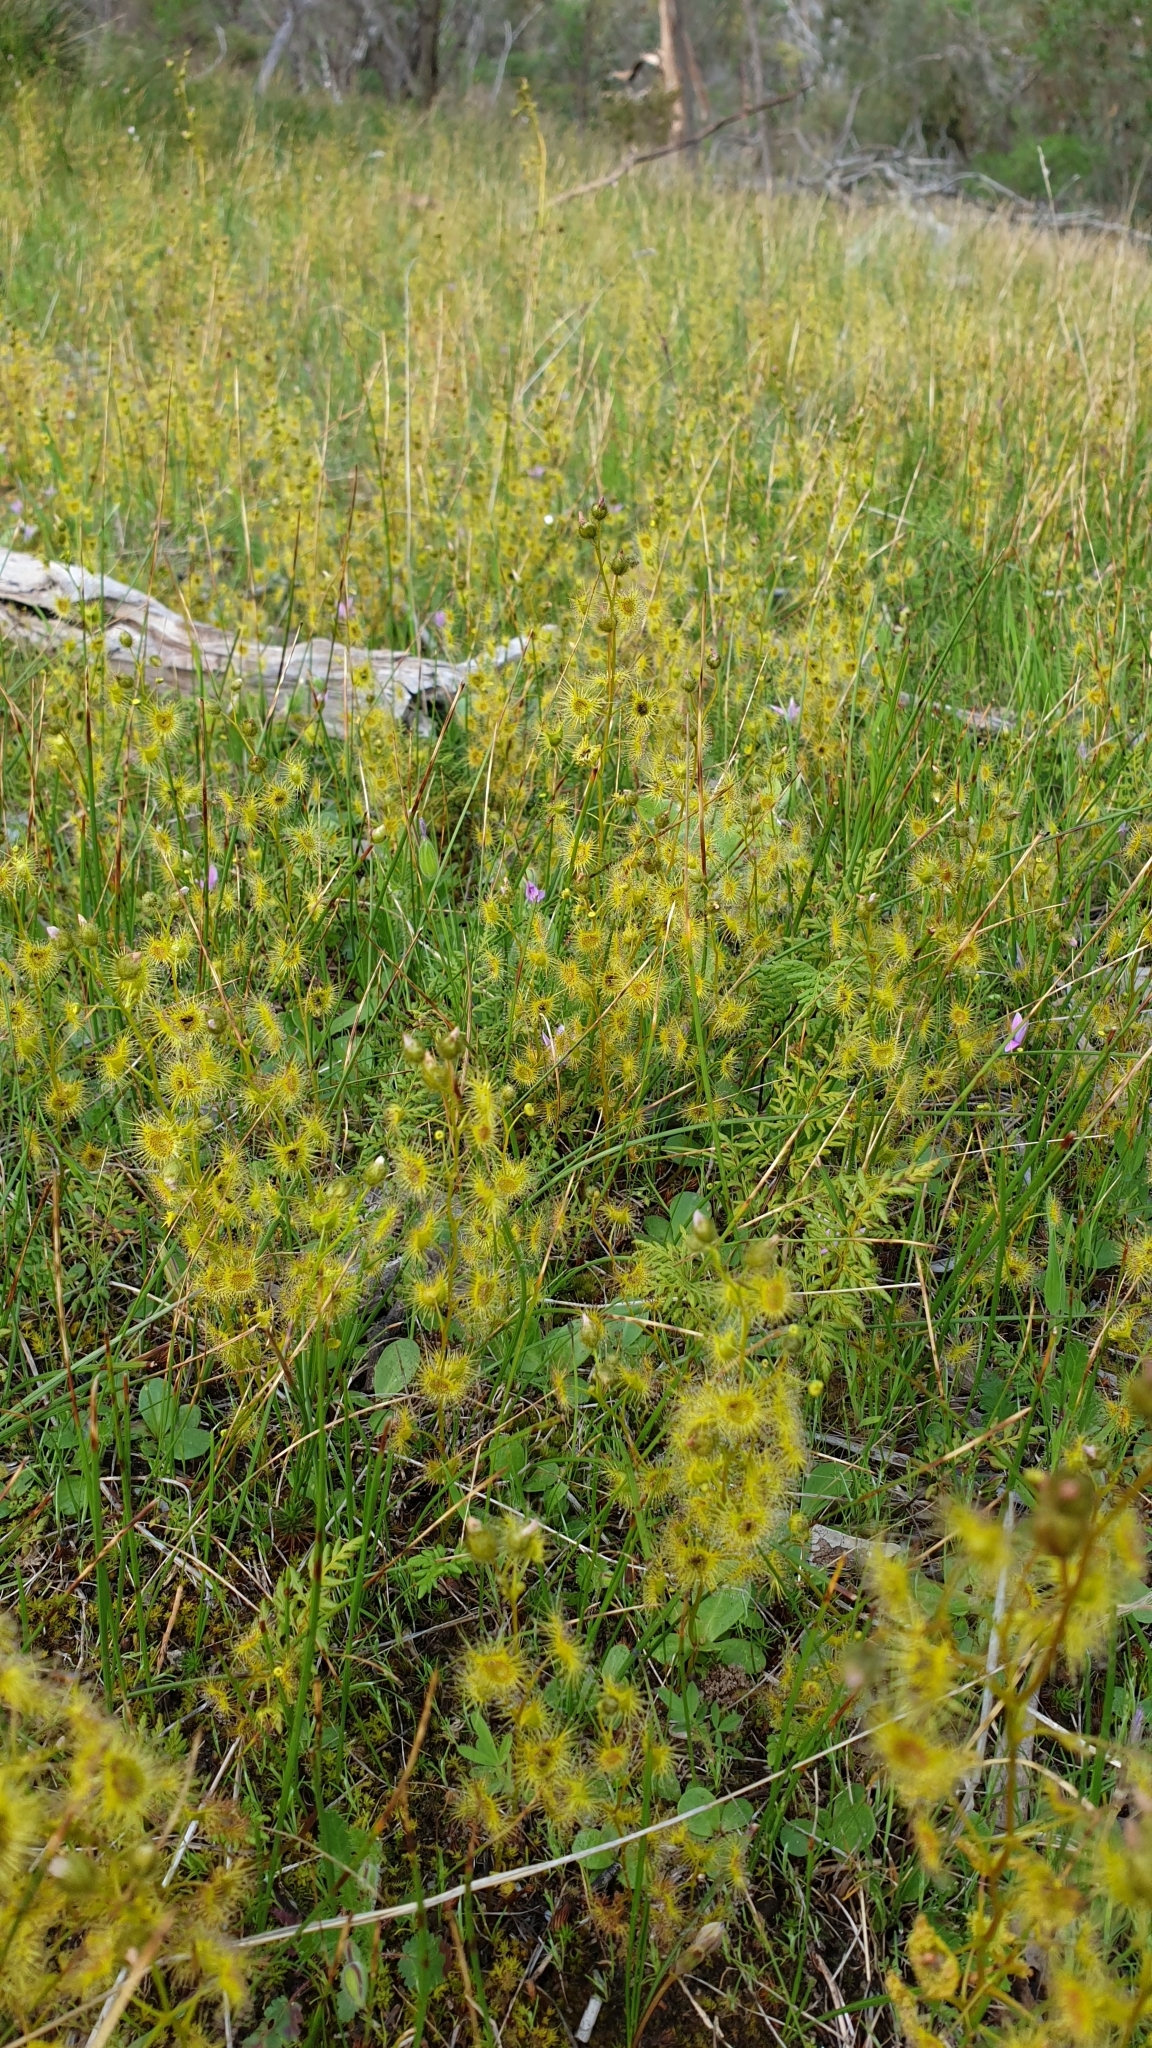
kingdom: Plantae
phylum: Tracheophyta
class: Magnoliopsida
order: Caryophyllales
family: Droseraceae
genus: Drosera
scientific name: Drosera gunniana
